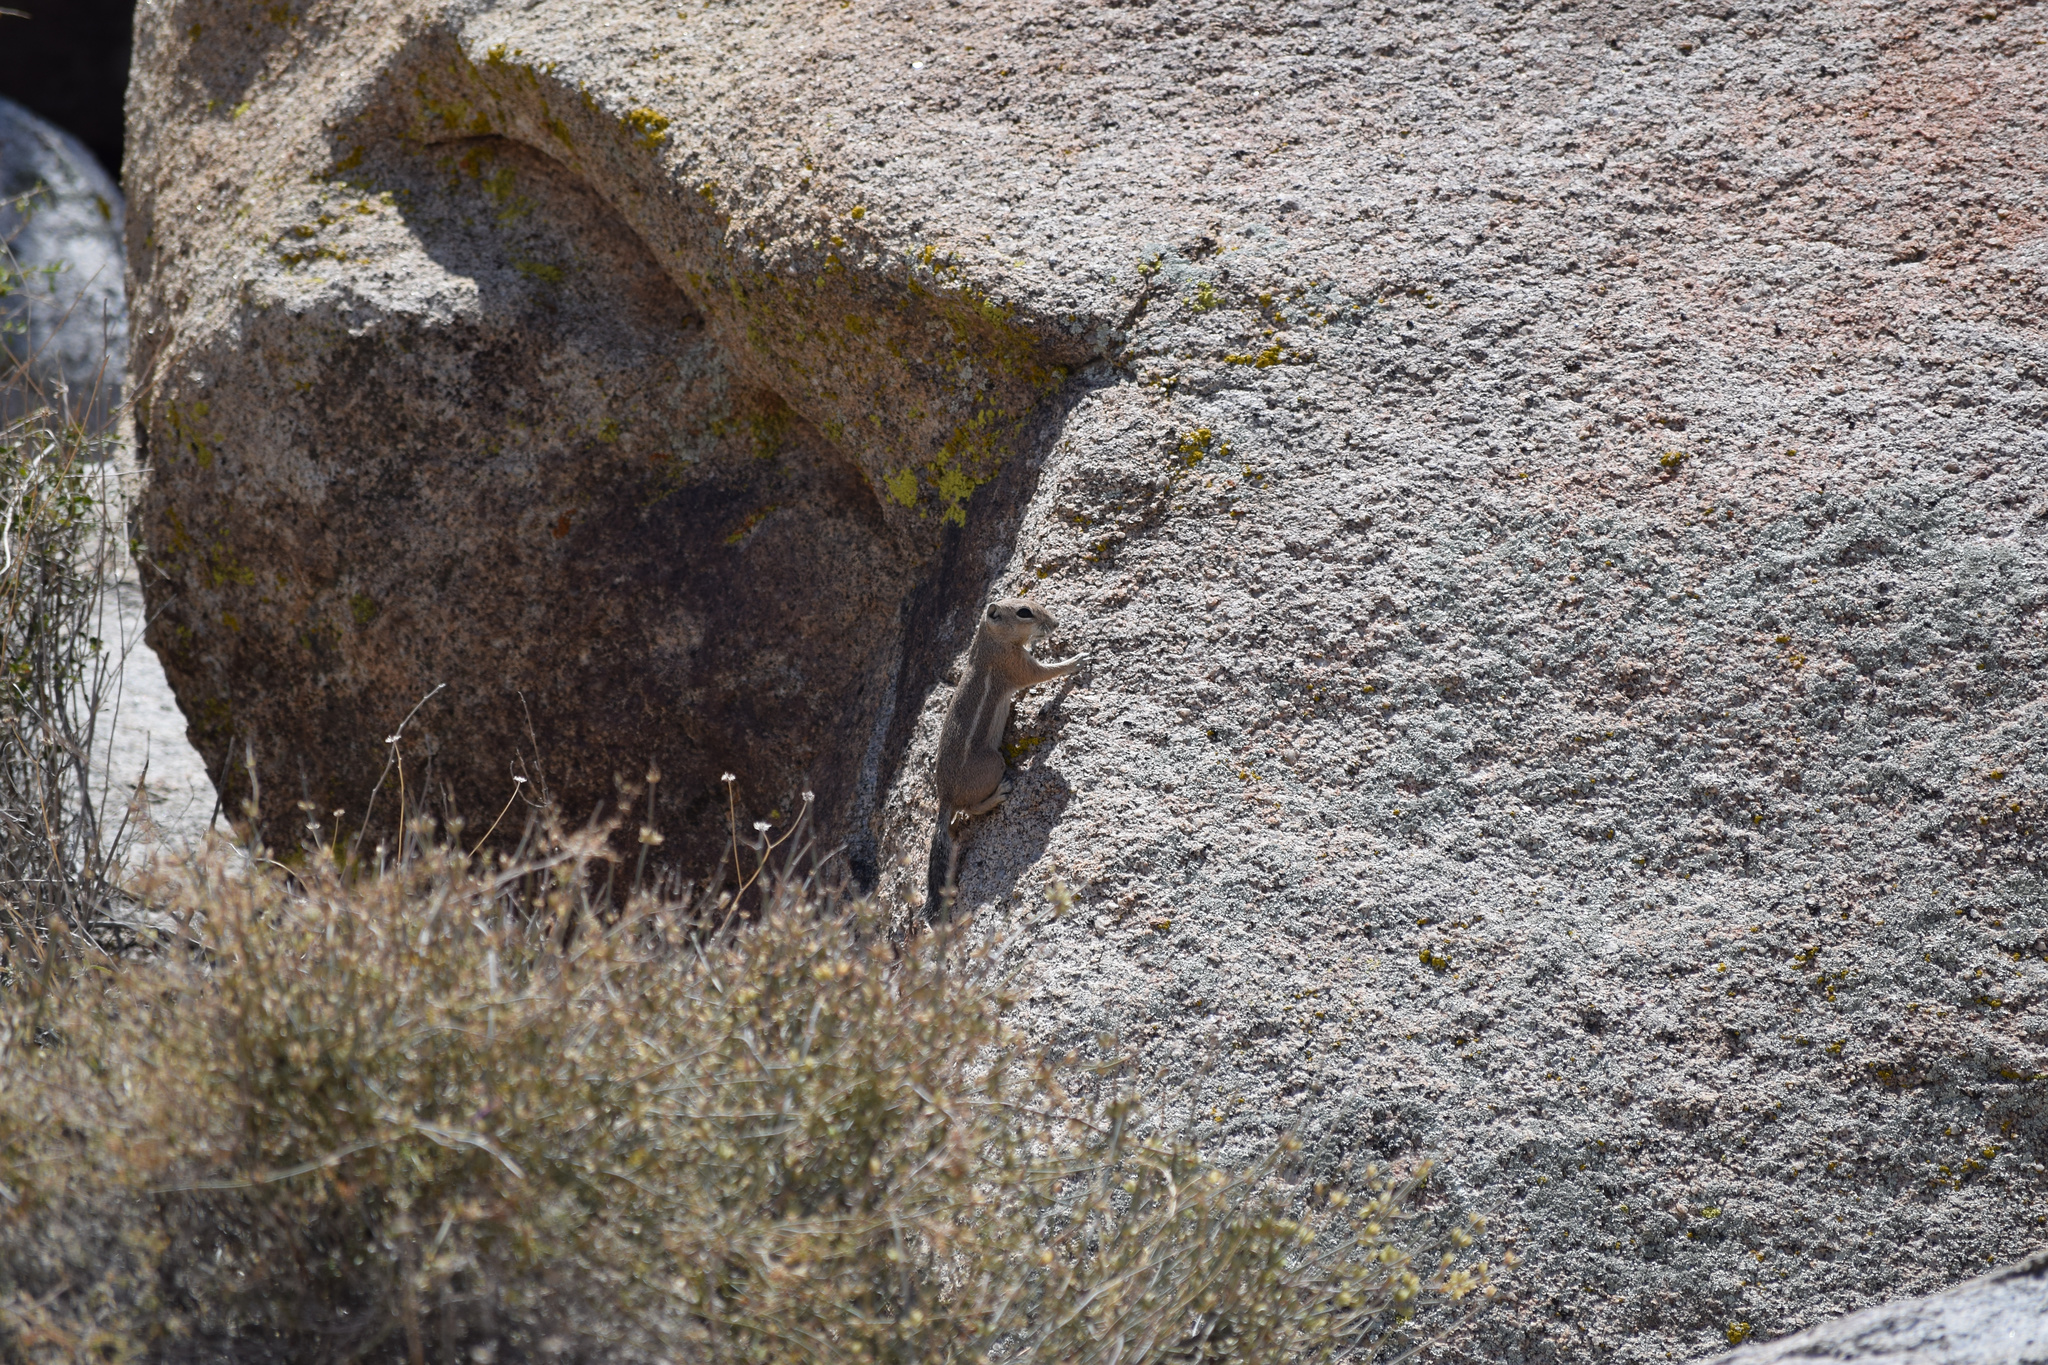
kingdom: Animalia
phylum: Chordata
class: Mammalia
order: Rodentia
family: Sciuridae
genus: Ammospermophilus
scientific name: Ammospermophilus leucurus
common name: White-tailed antelope squirrel
